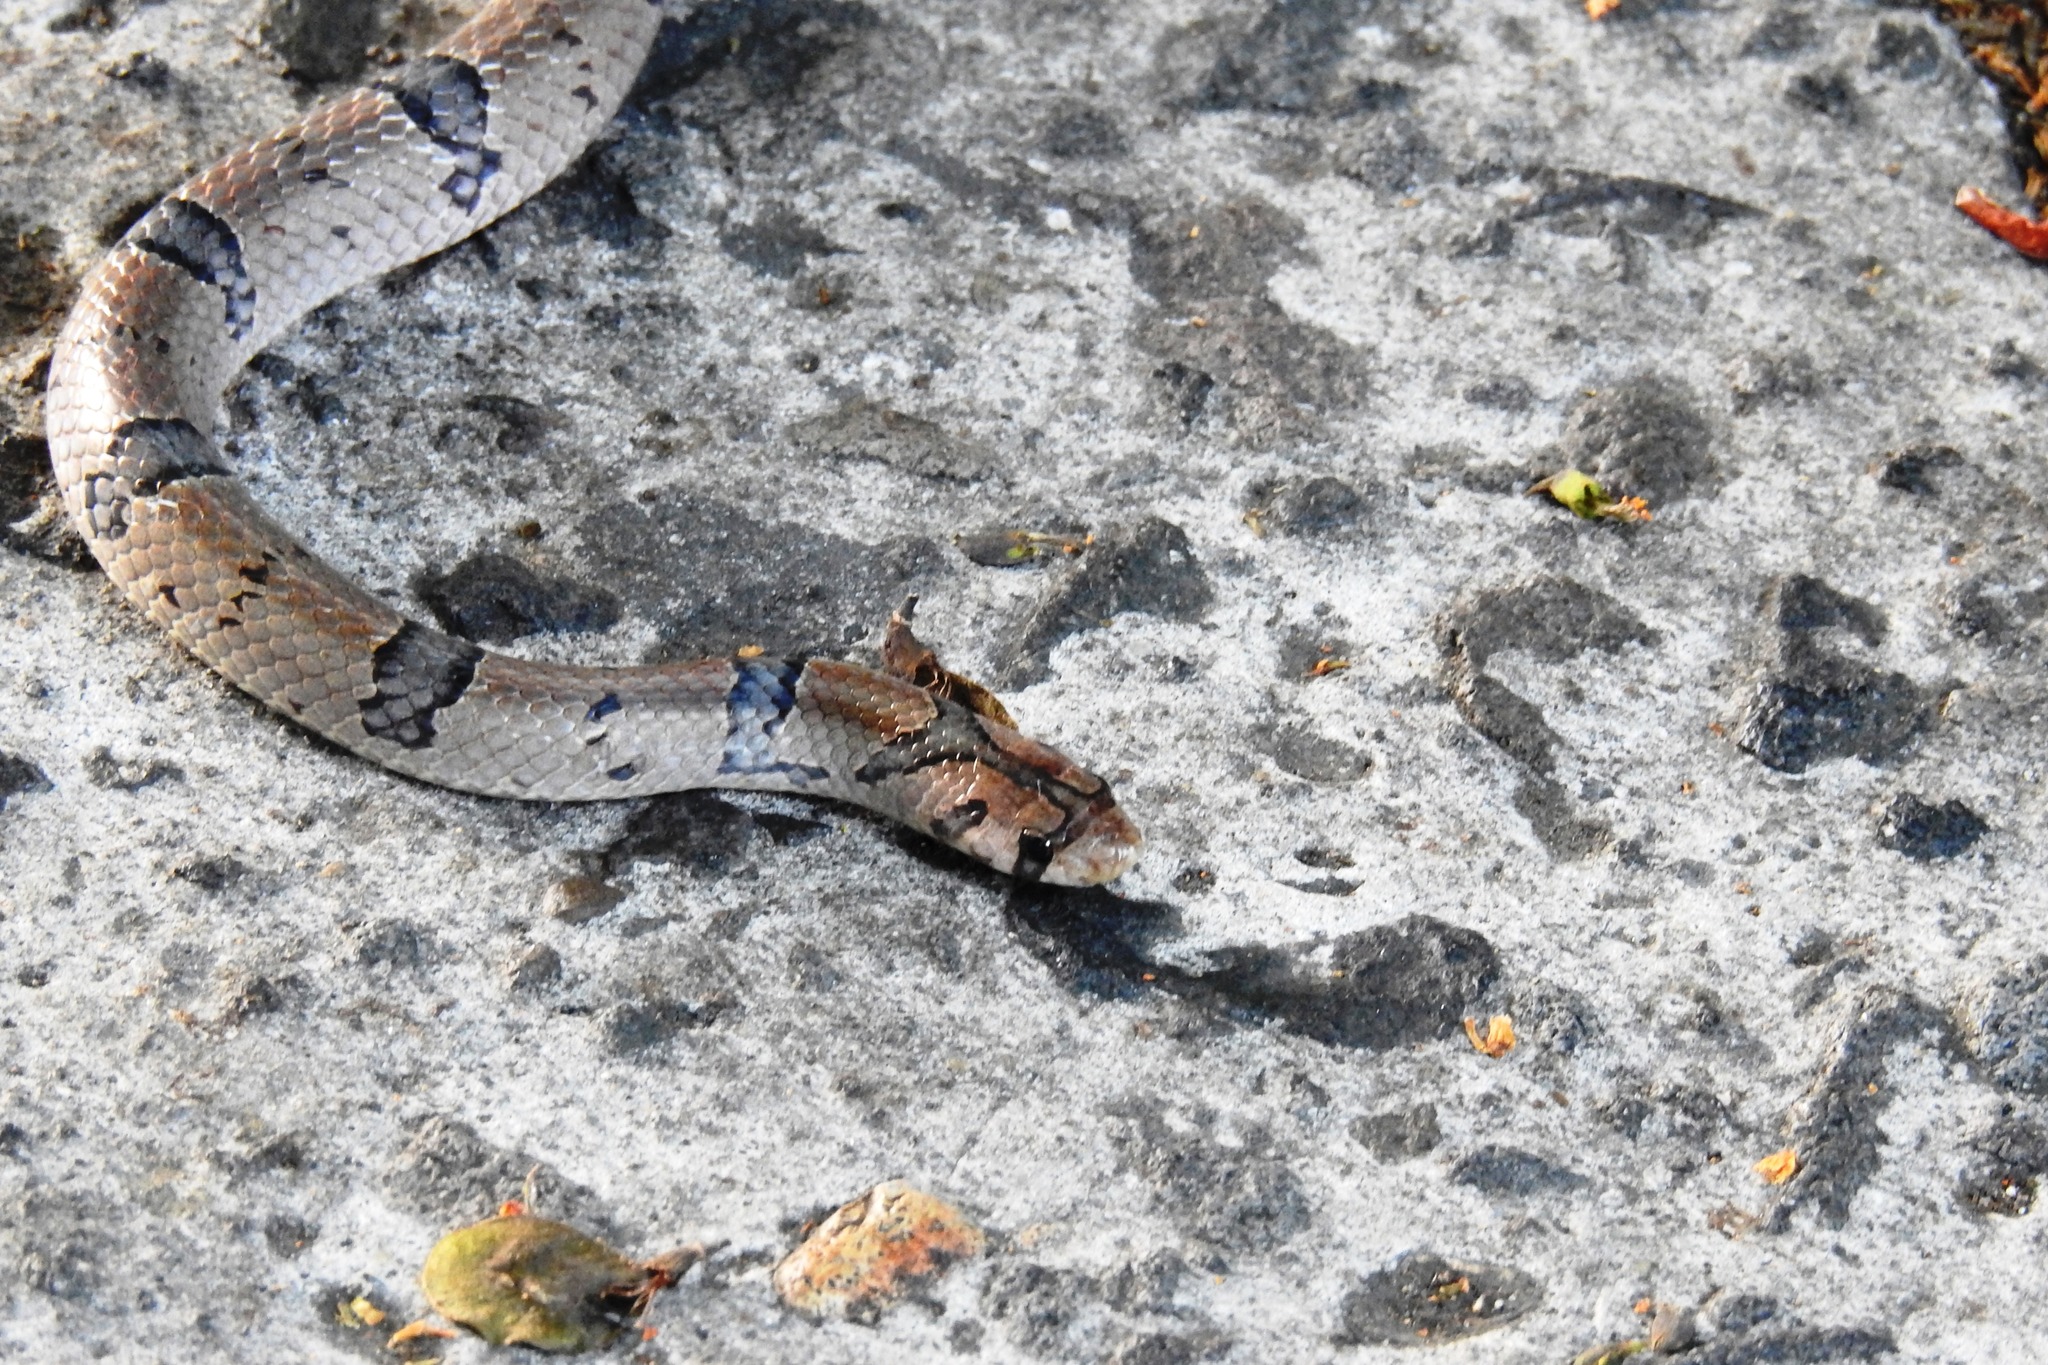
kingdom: Animalia
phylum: Chordata
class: Squamata
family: Colubridae
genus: Oligodon
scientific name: Oligodon ancorus
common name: Northern short-headed snake
